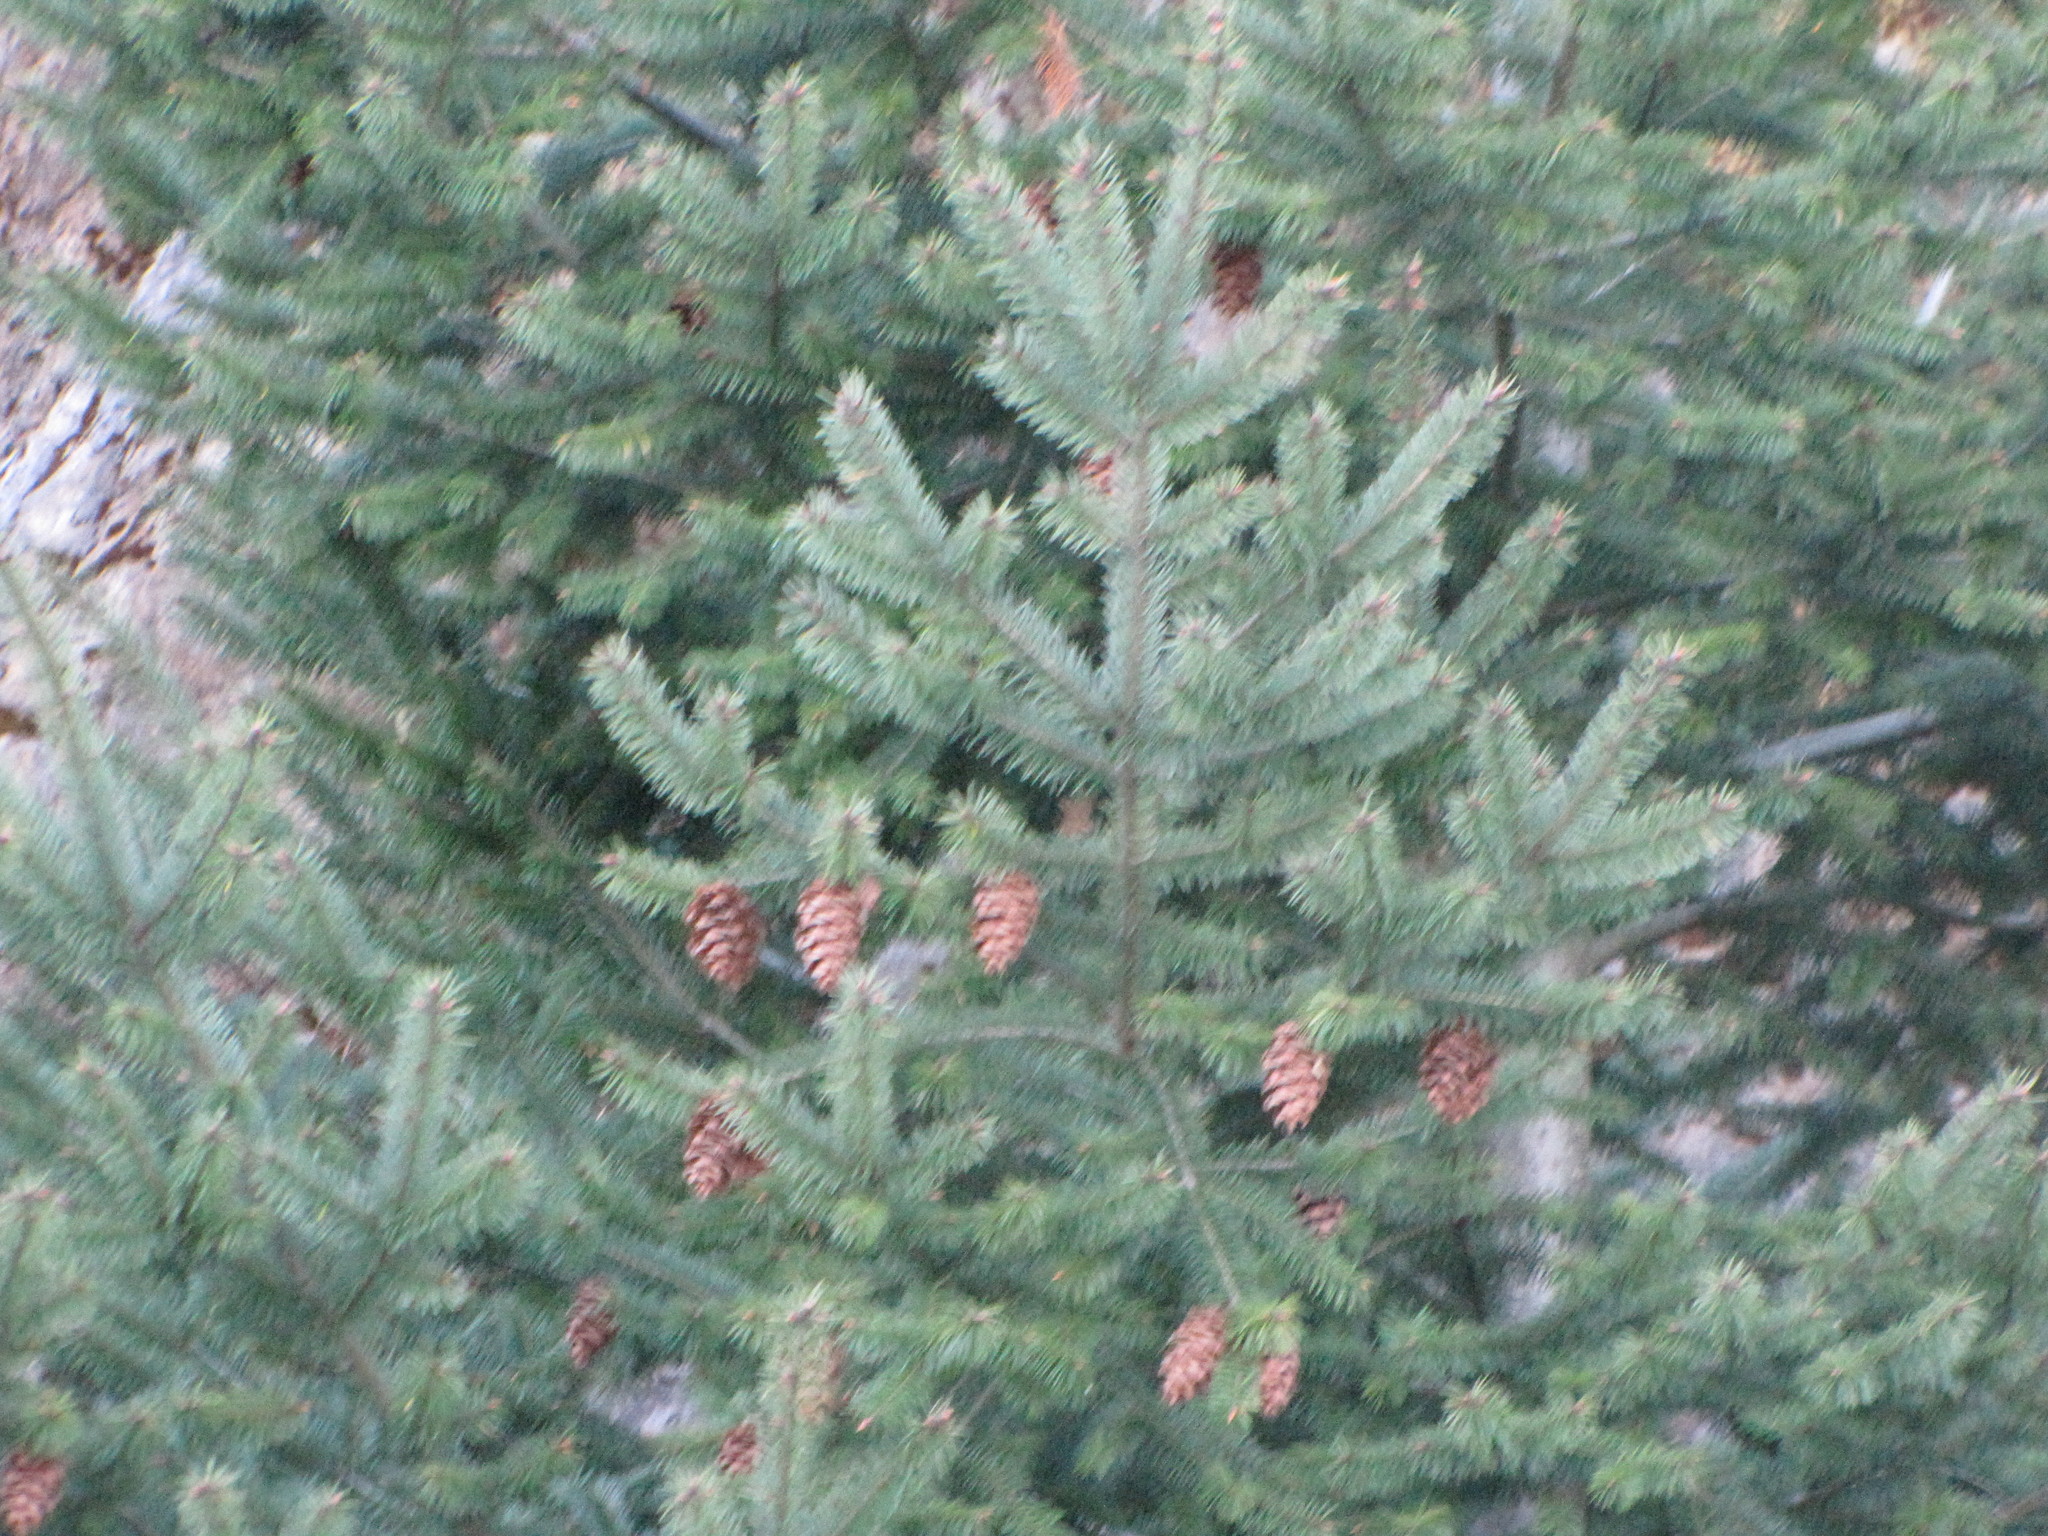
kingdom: Plantae
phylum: Tracheophyta
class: Pinopsida
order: Pinales
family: Pinaceae
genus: Pseudotsuga
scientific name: Pseudotsuga menziesii
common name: Douglas fir
